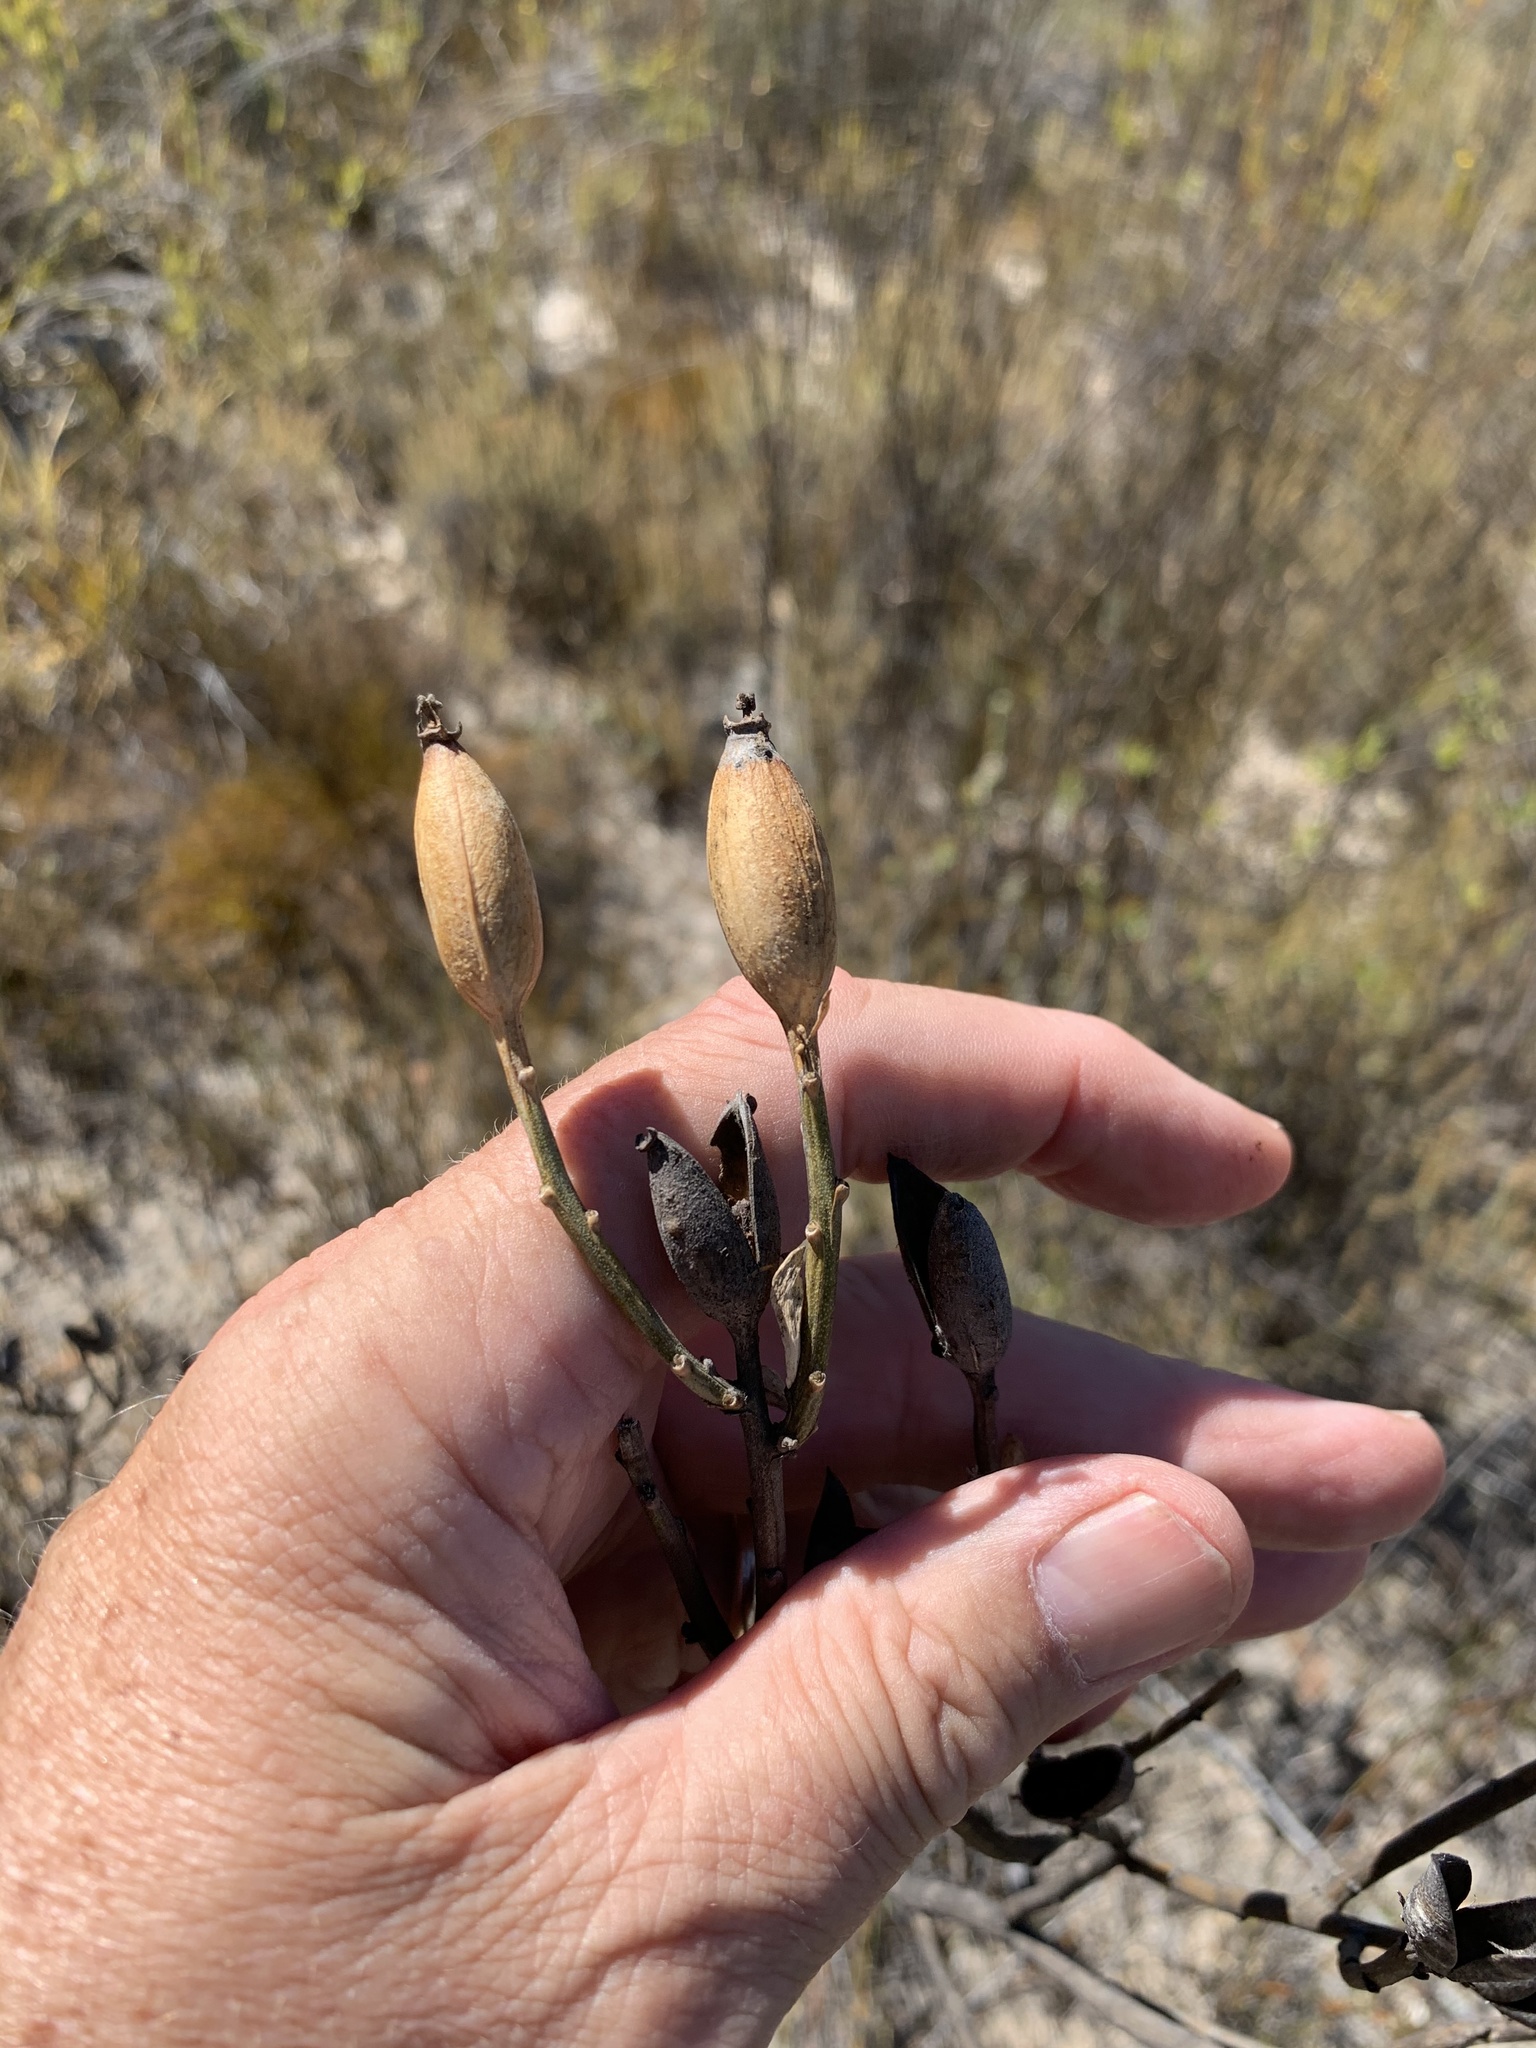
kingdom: Plantae
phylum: Tracheophyta
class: Magnoliopsida
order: Solanales
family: Montiniaceae
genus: Montinia
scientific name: Montinia caryophyllacea
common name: Wild clove-bush
